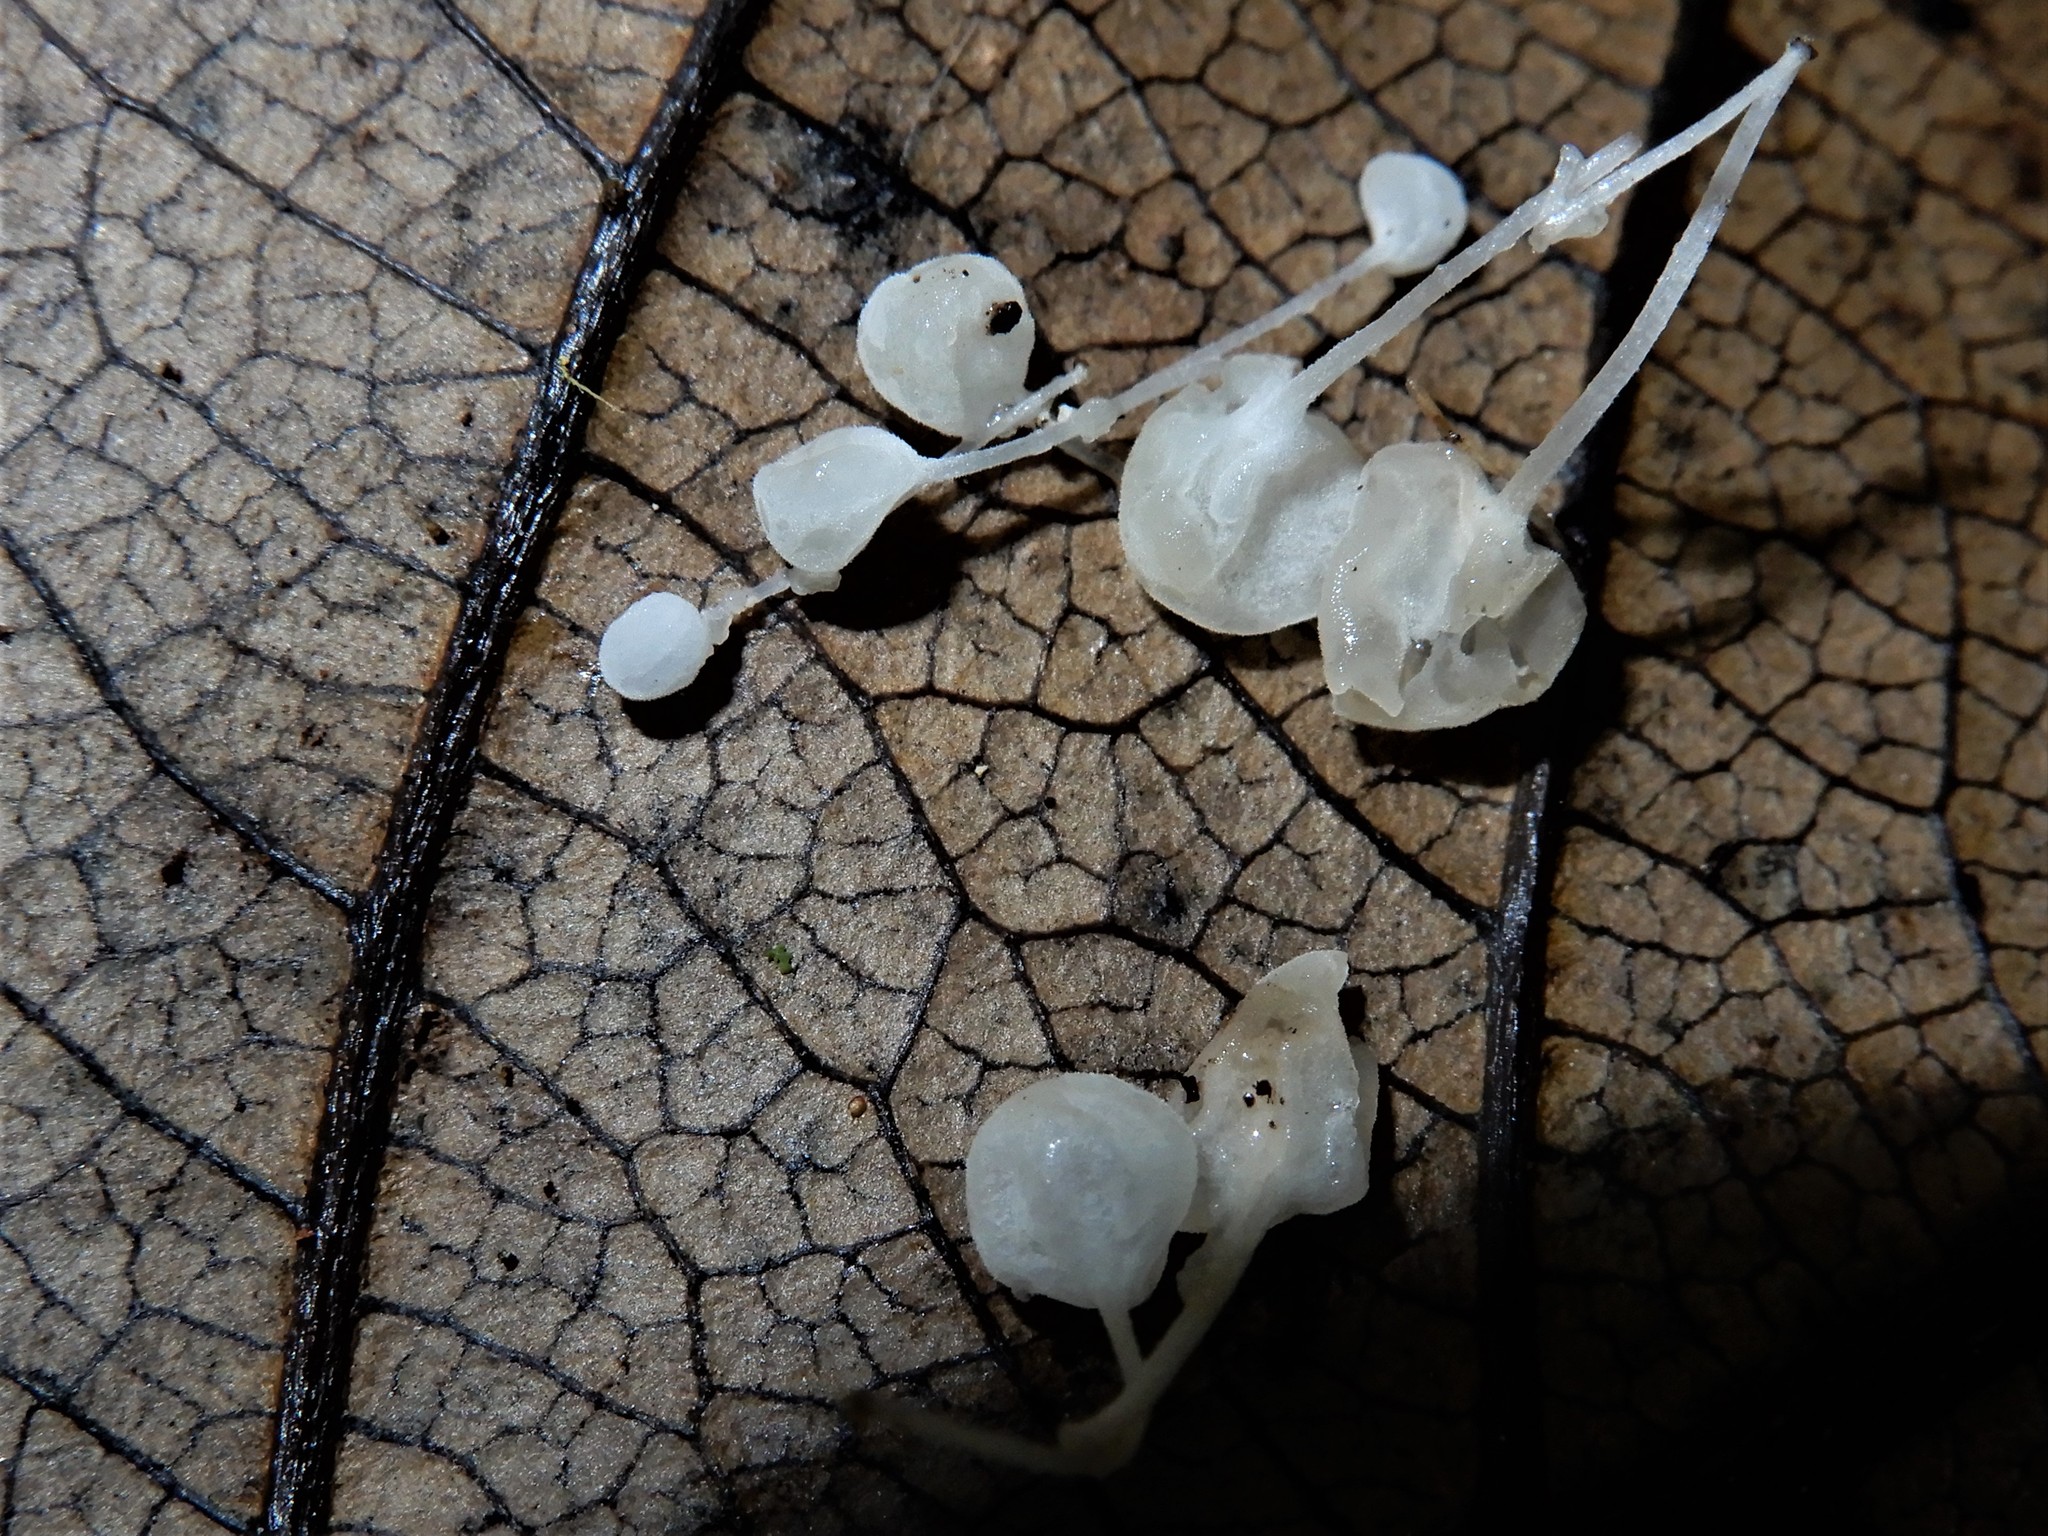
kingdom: Fungi
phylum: Basidiomycota
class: Agaricomycetes
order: Agaricales
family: Physalacriaceae
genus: Physalacria
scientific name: Physalacria pseudotropica
